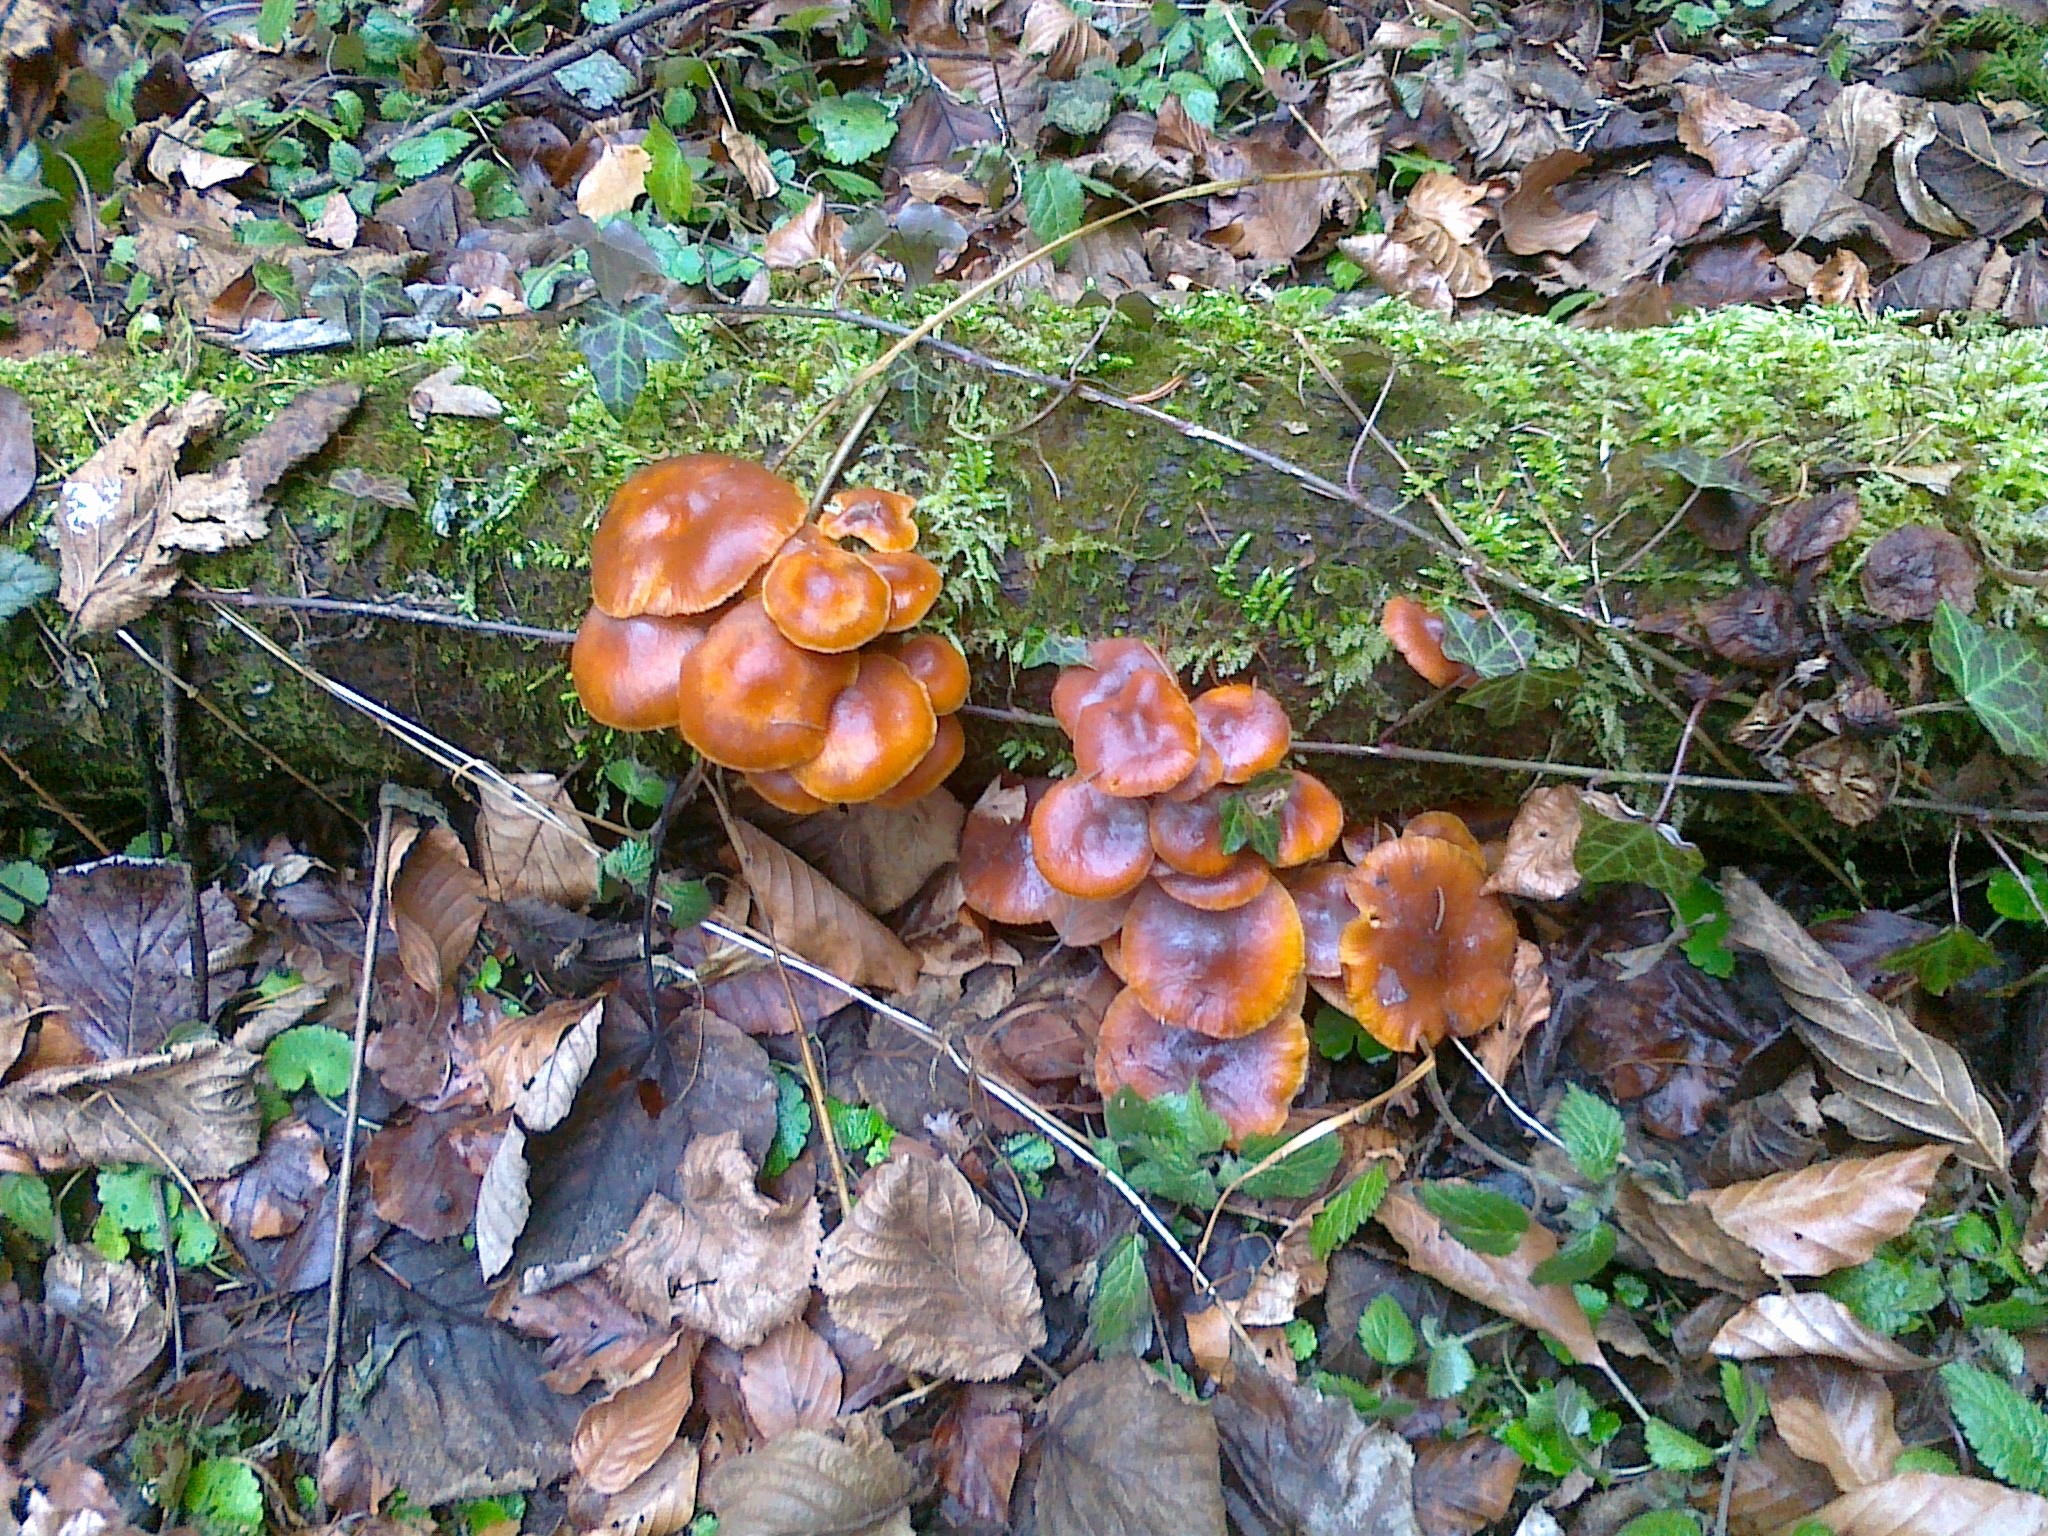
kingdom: Fungi
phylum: Basidiomycota
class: Agaricomycetes
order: Agaricales
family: Physalacriaceae
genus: Flammulina
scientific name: Flammulina
